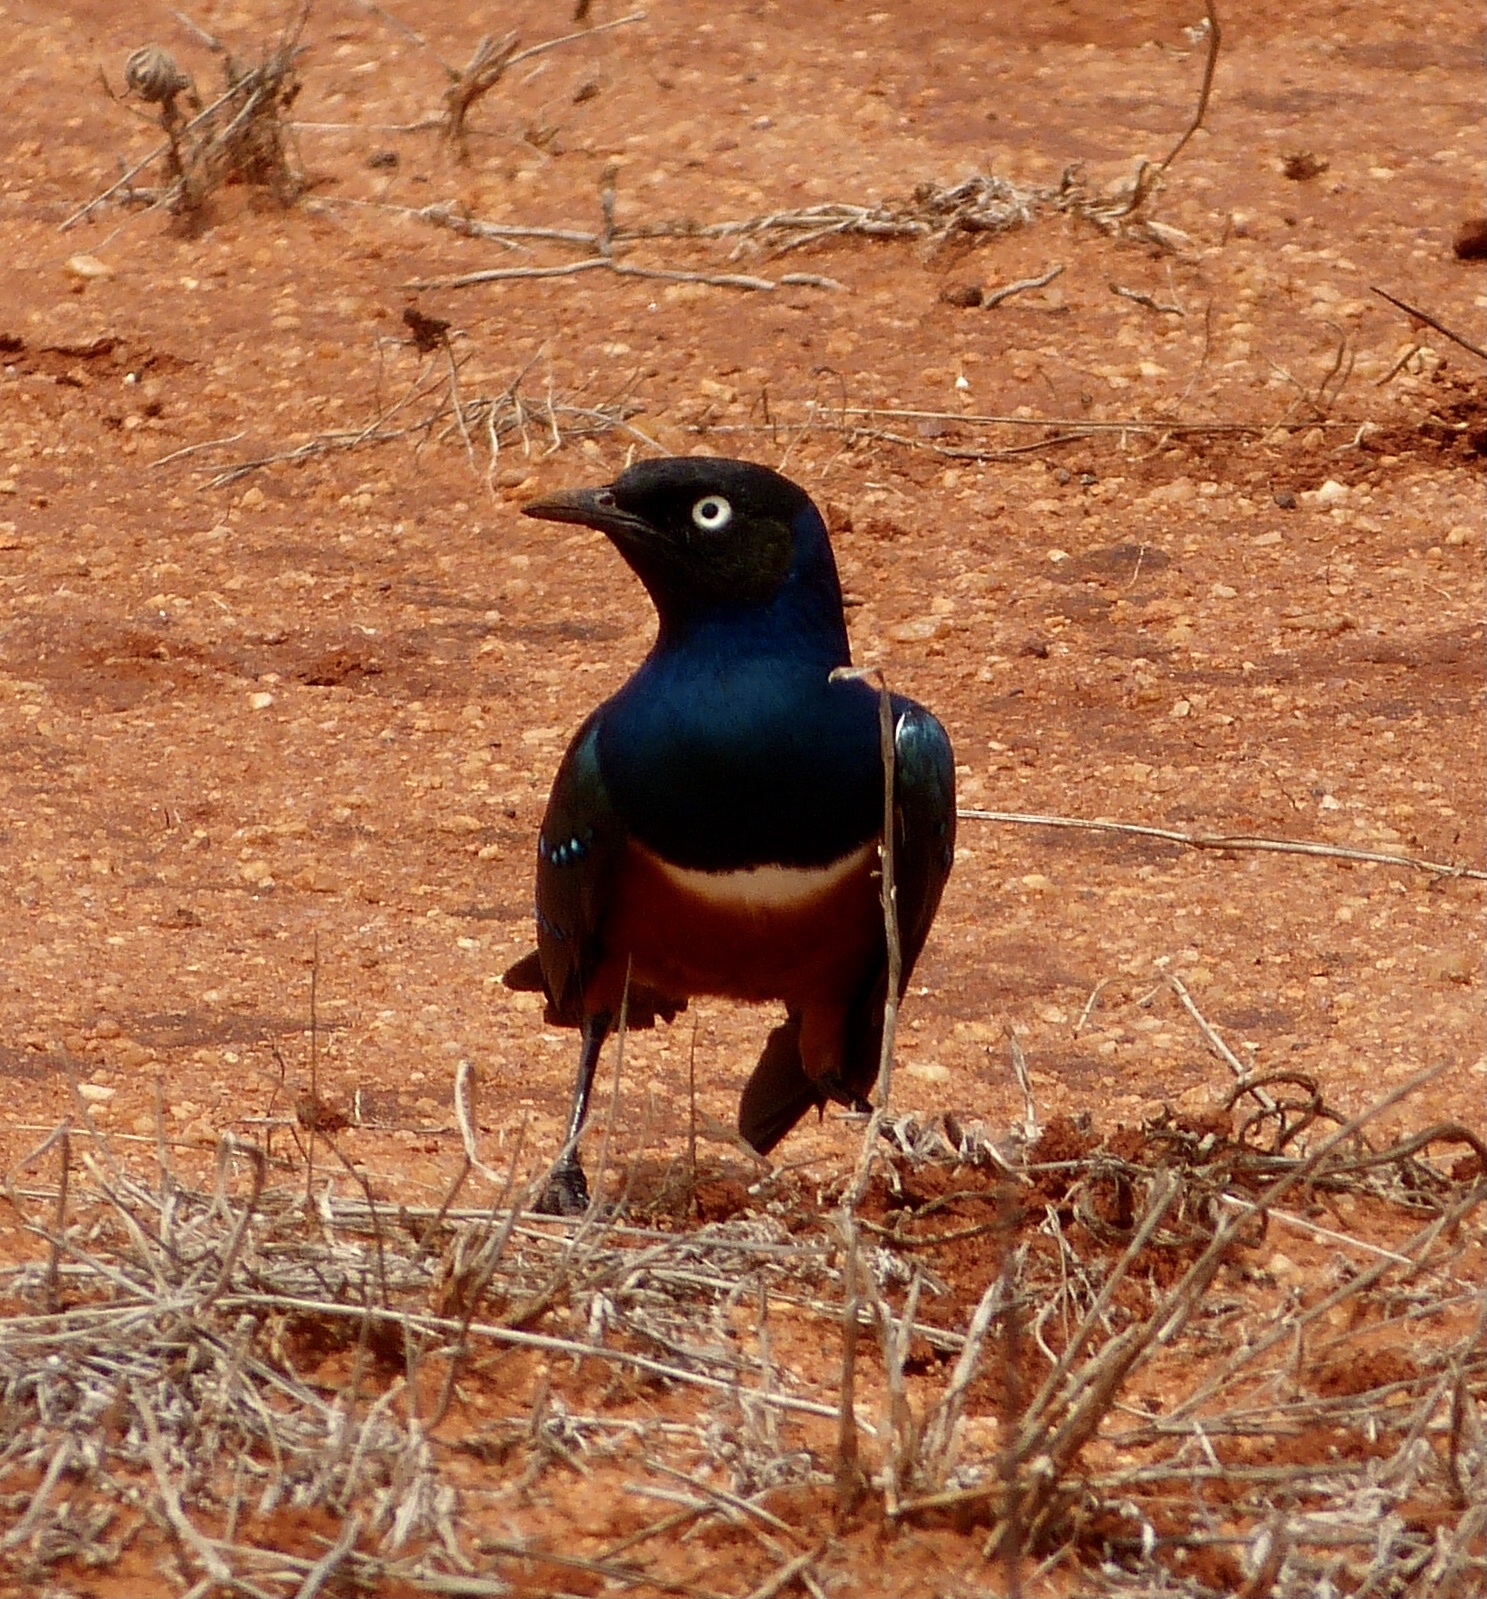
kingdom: Animalia
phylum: Chordata
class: Aves
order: Passeriformes
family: Sturnidae
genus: Lamprotornis
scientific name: Lamprotornis superbus
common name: Superb starling
